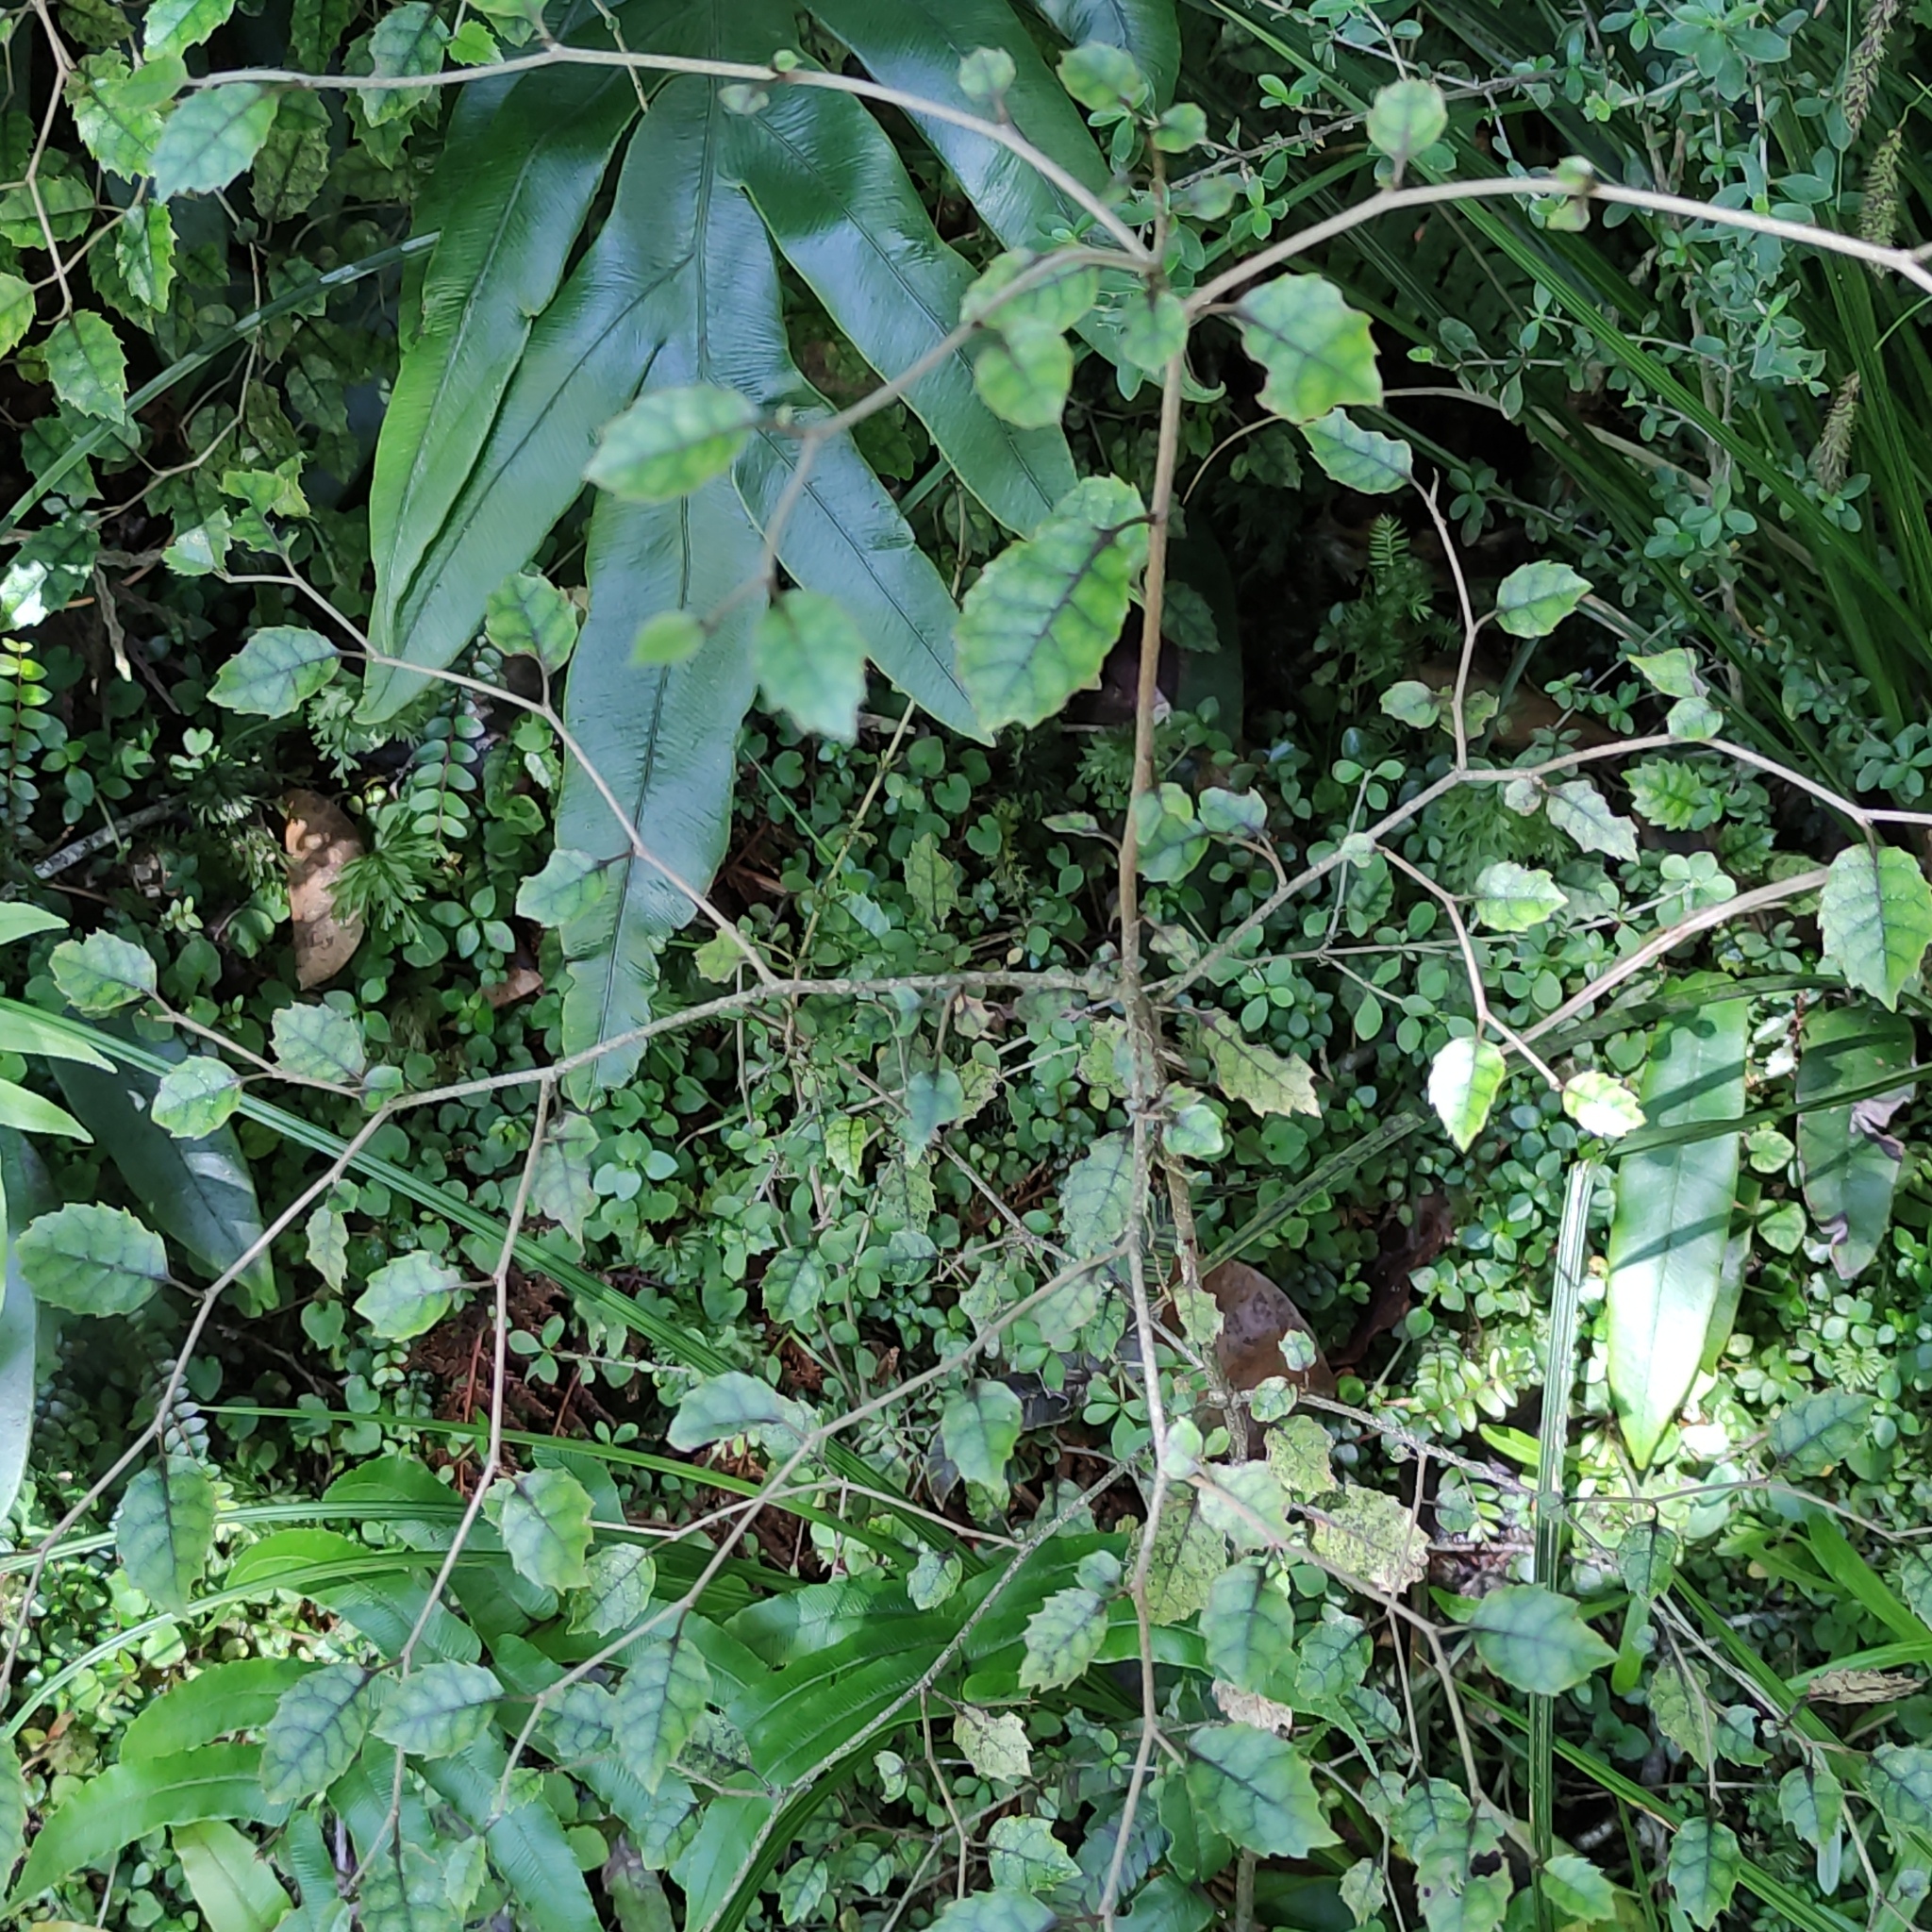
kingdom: Plantae
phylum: Tracheophyta
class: Magnoliopsida
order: Asterales
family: Rousseaceae
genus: Carpodetus
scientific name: Carpodetus serratus
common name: White mapau
